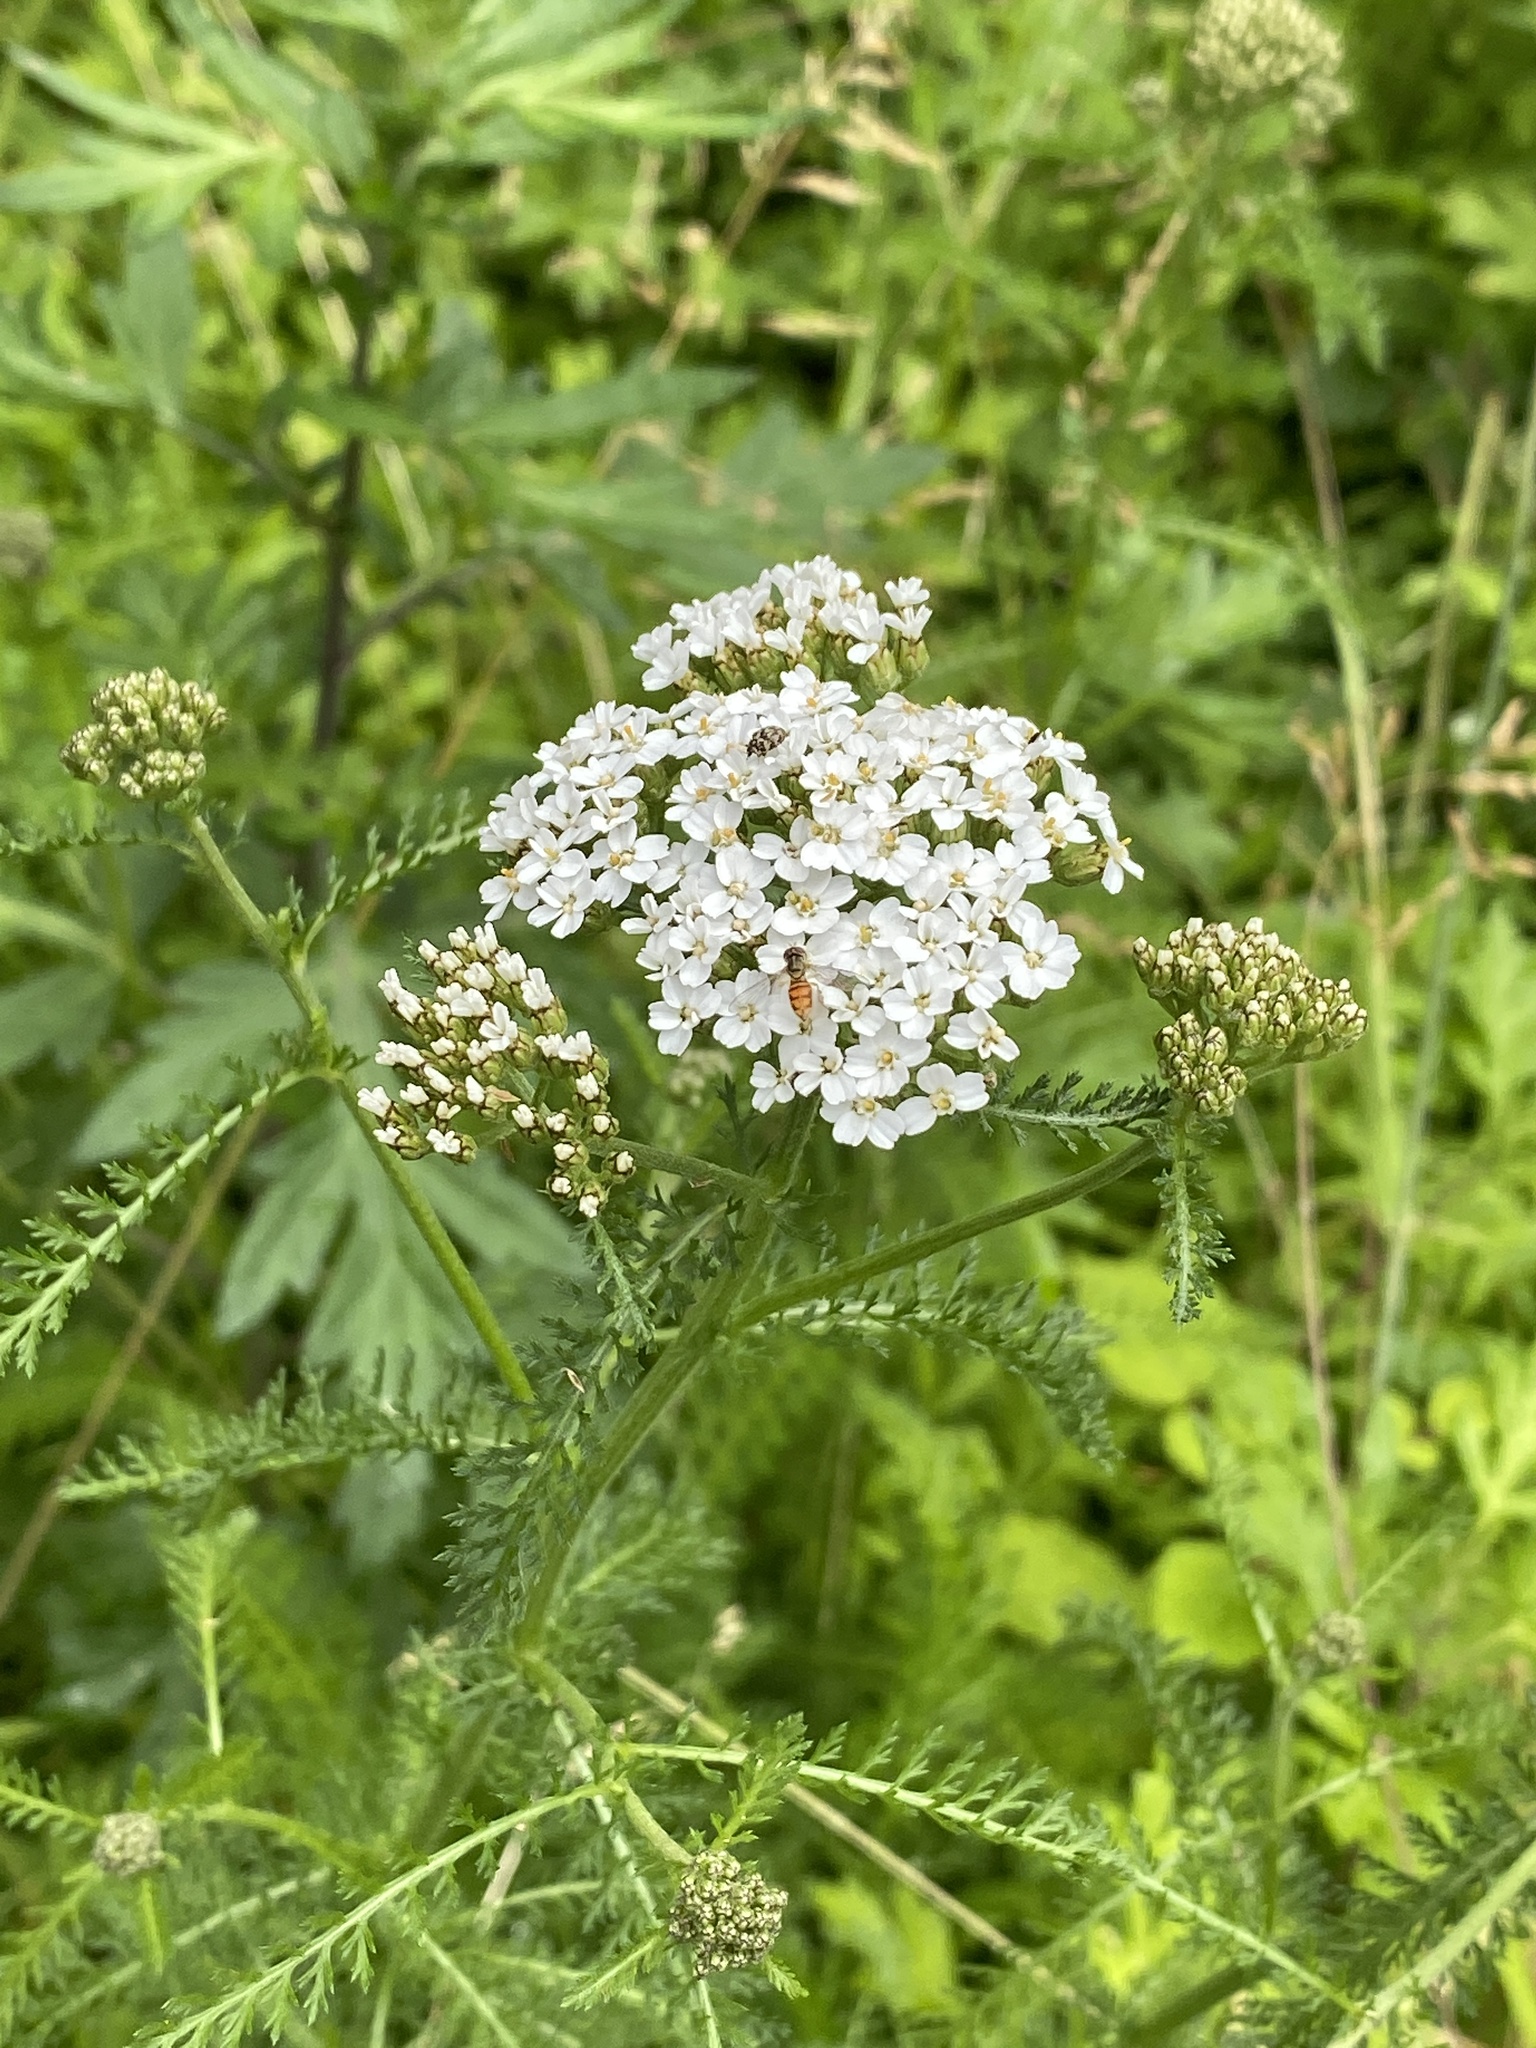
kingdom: Plantae
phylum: Tracheophyta
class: Magnoliopsida
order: Asterales
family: Asteraceae
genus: Achillea
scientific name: Achillea millefolium
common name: Yarrow
